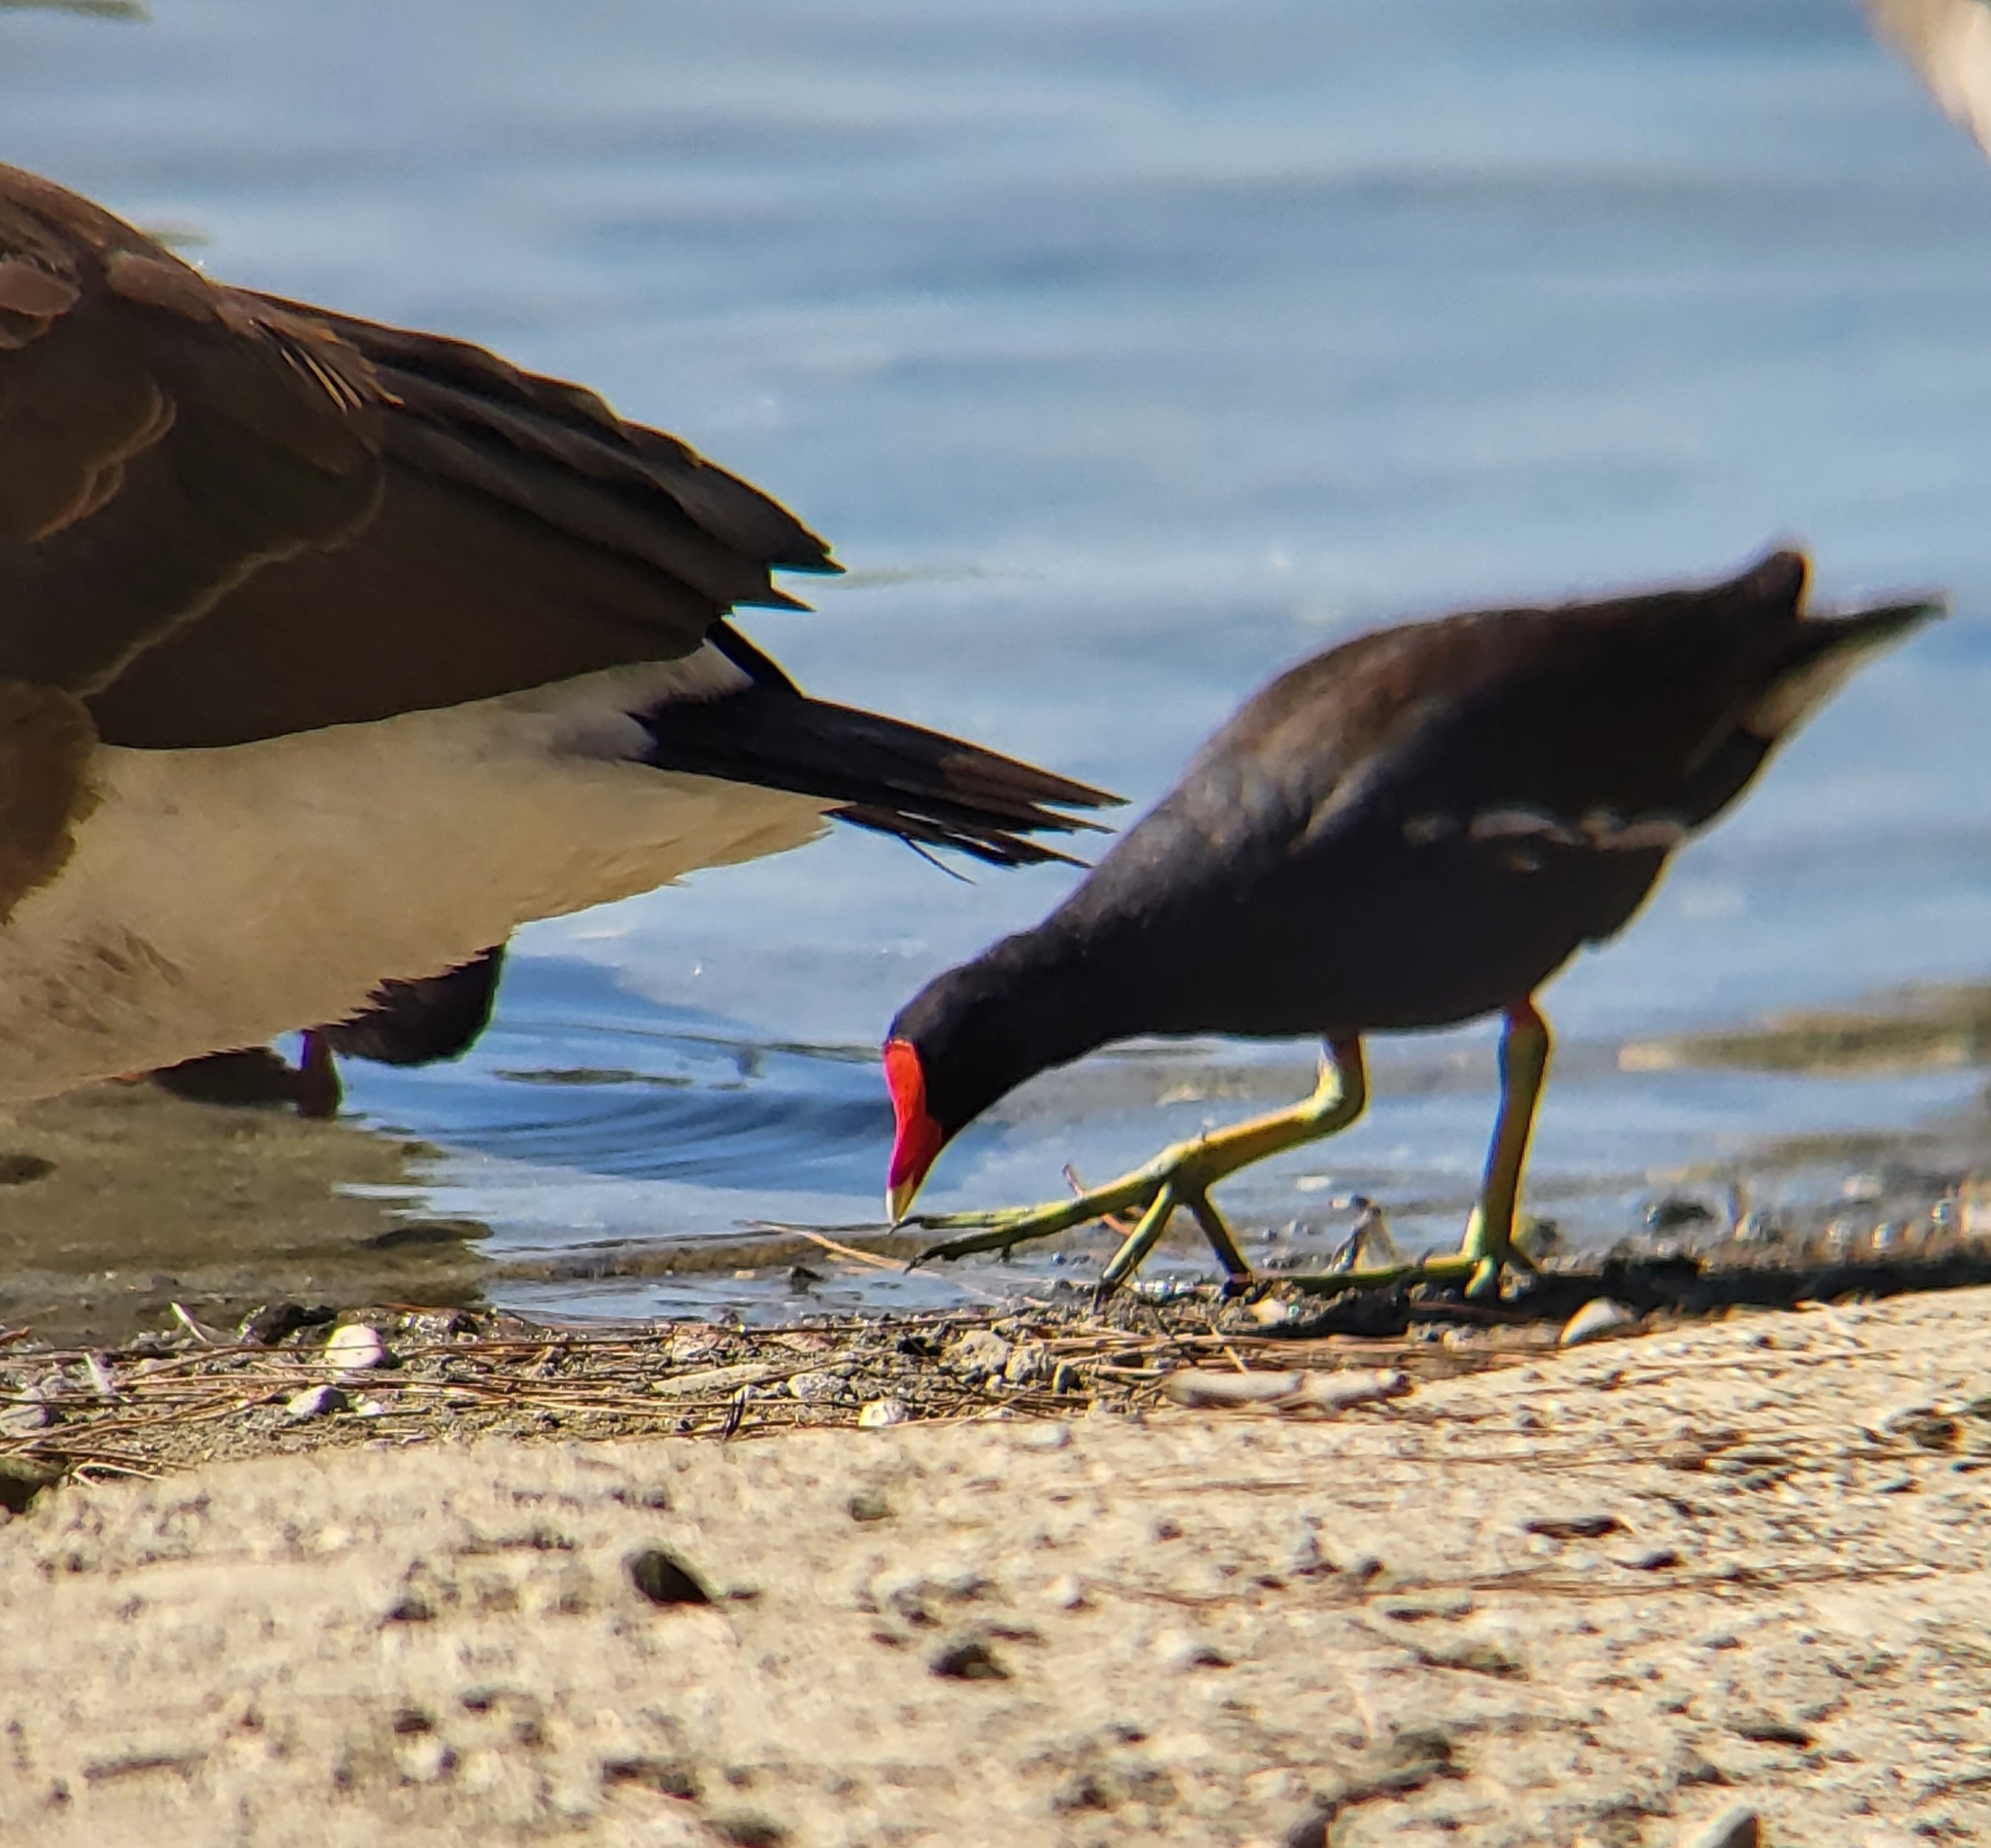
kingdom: Animalia
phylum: Chordata
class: Aves
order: Gruiformes
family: Rallidae
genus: Gallinula
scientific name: Gallinula chloropus
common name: Common moorhen
